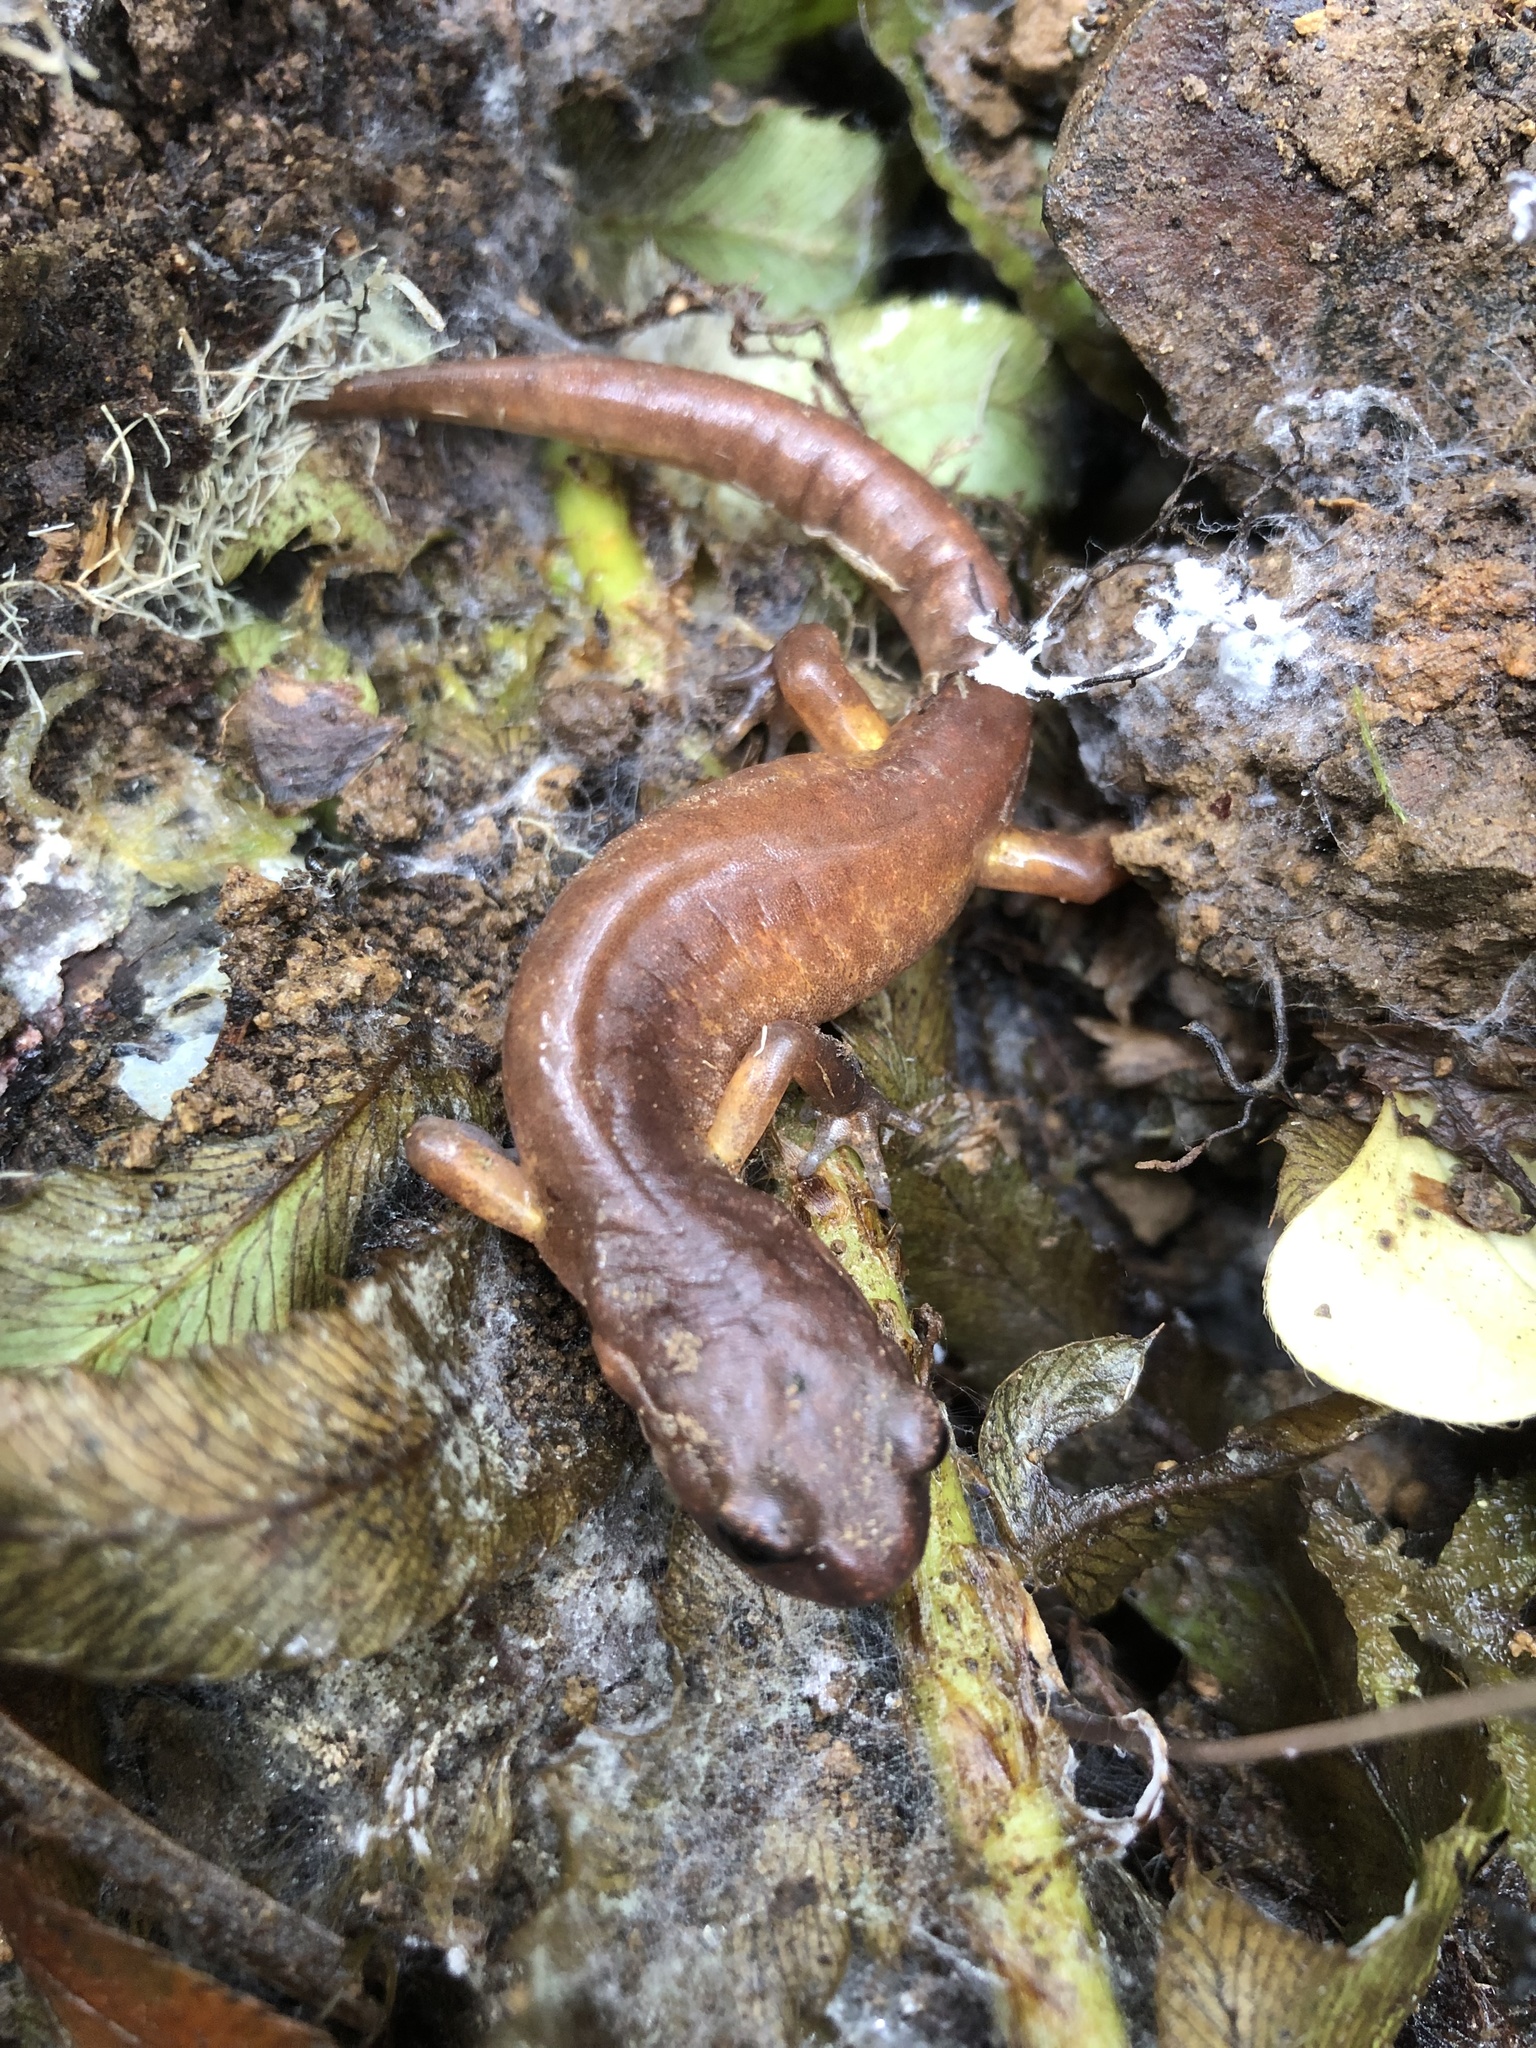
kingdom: Animalia
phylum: Chordata
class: Amphibia
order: Caudata
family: Plethodontidae
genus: Ensatina
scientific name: Ensatina eschscholtzii
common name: Ensatina
